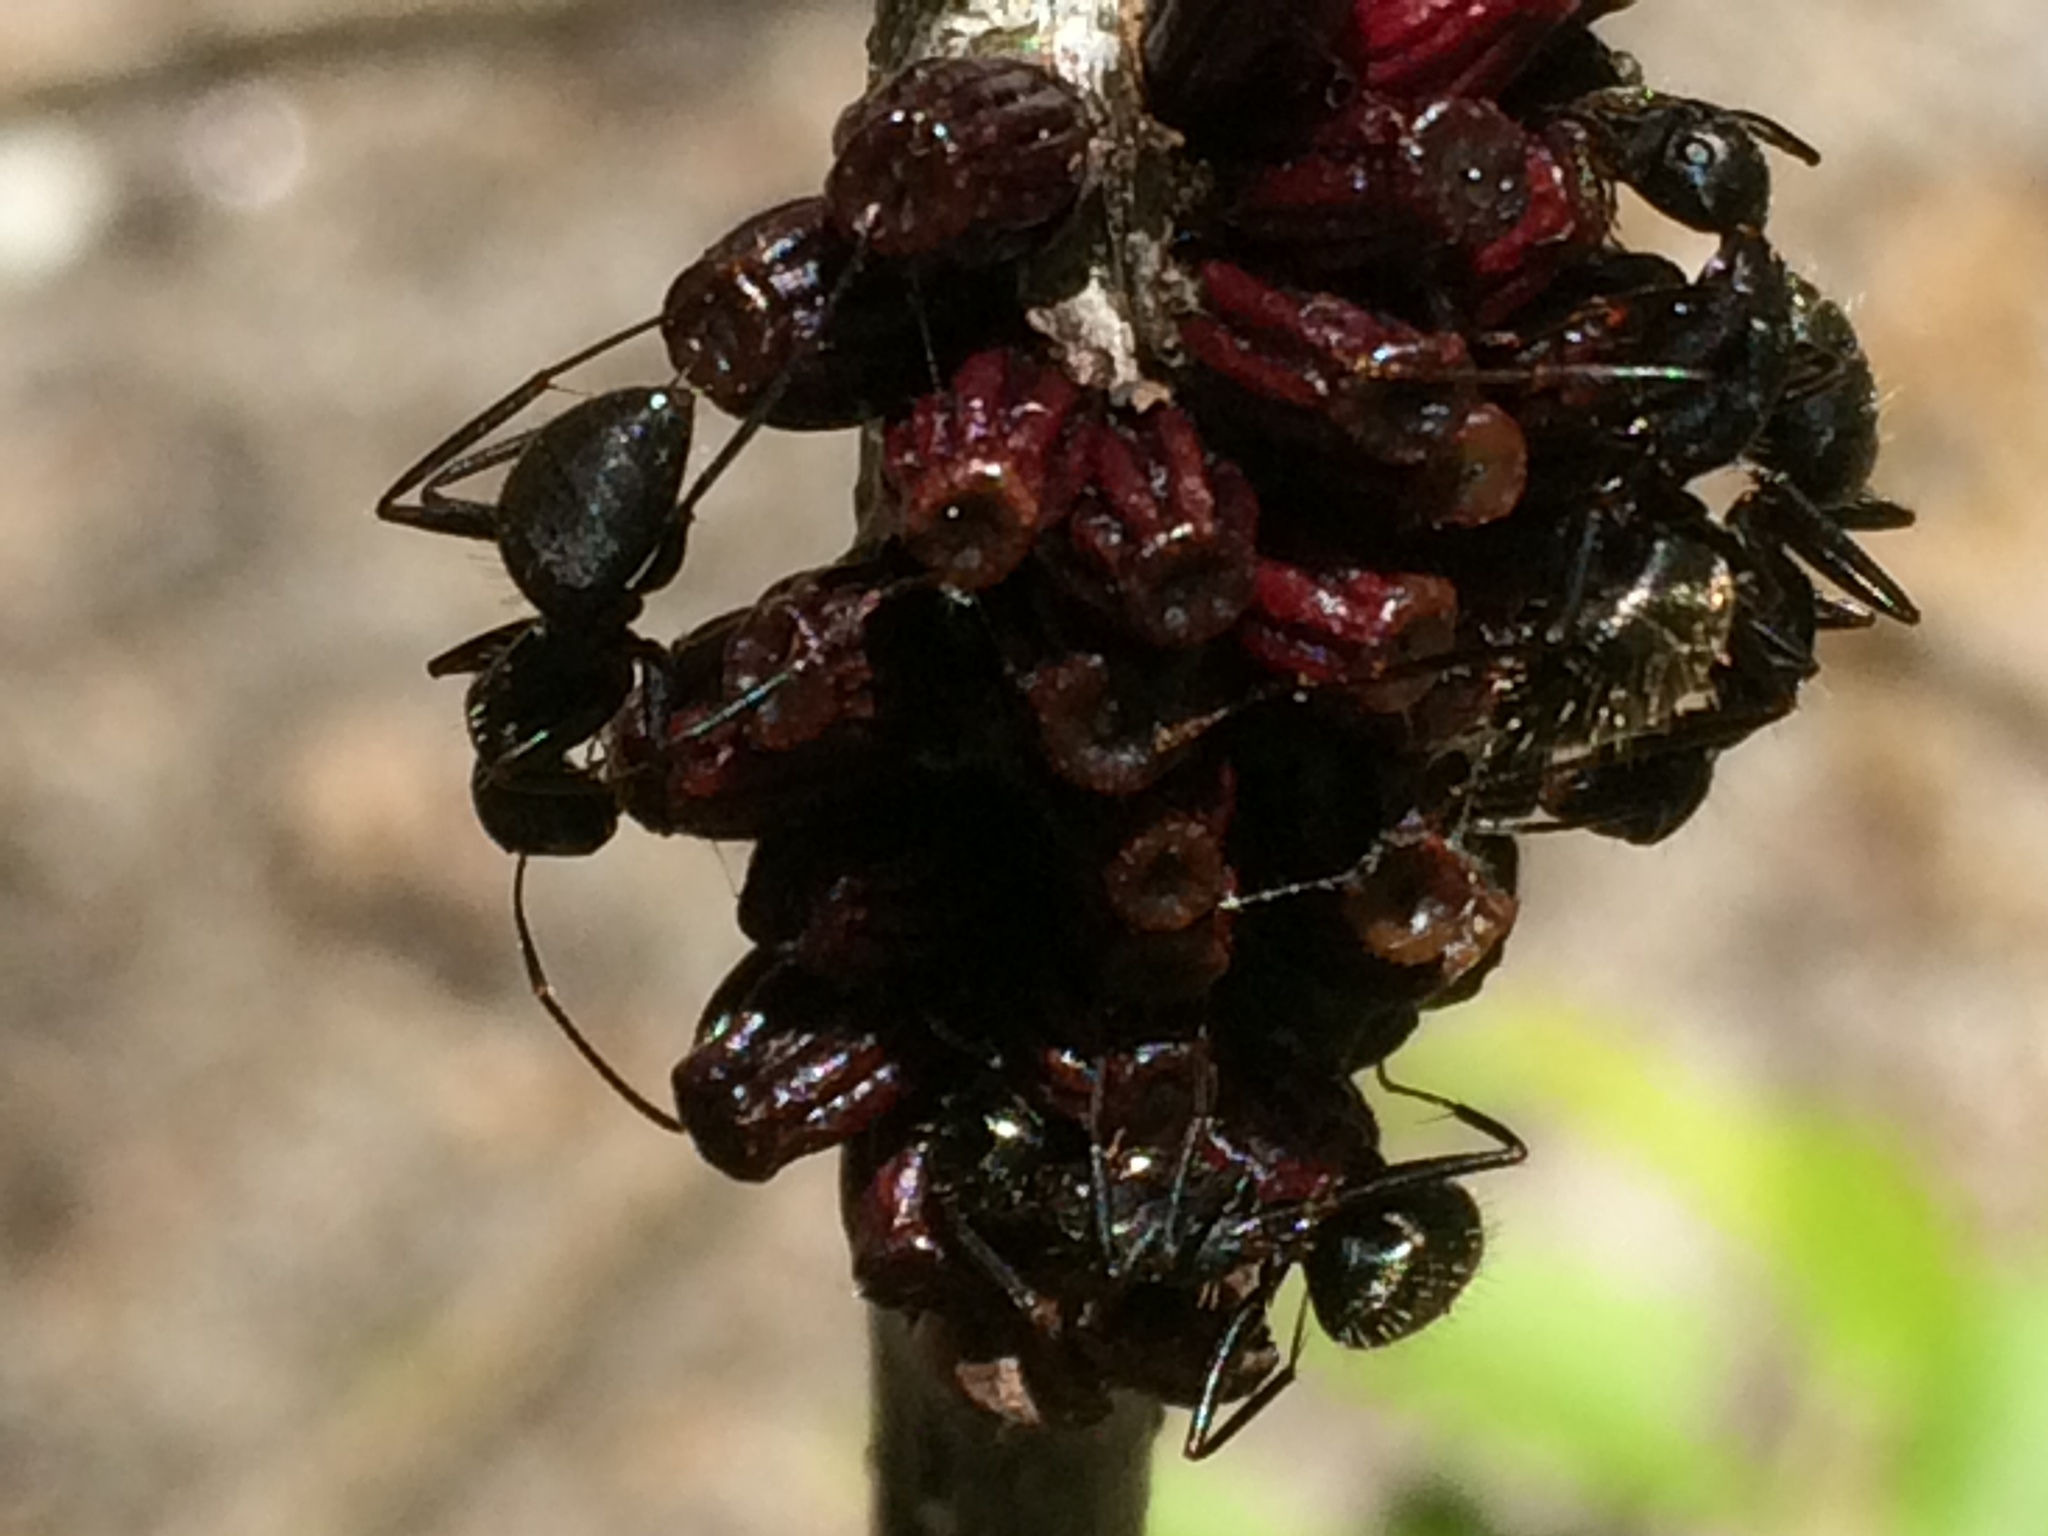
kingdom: Animalia
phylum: Arthropoda
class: Insecta
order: Hymenoptera
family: Formicidae
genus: Camponotus
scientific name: Camponotus pennsylvanicus
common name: Black carpenter ant
